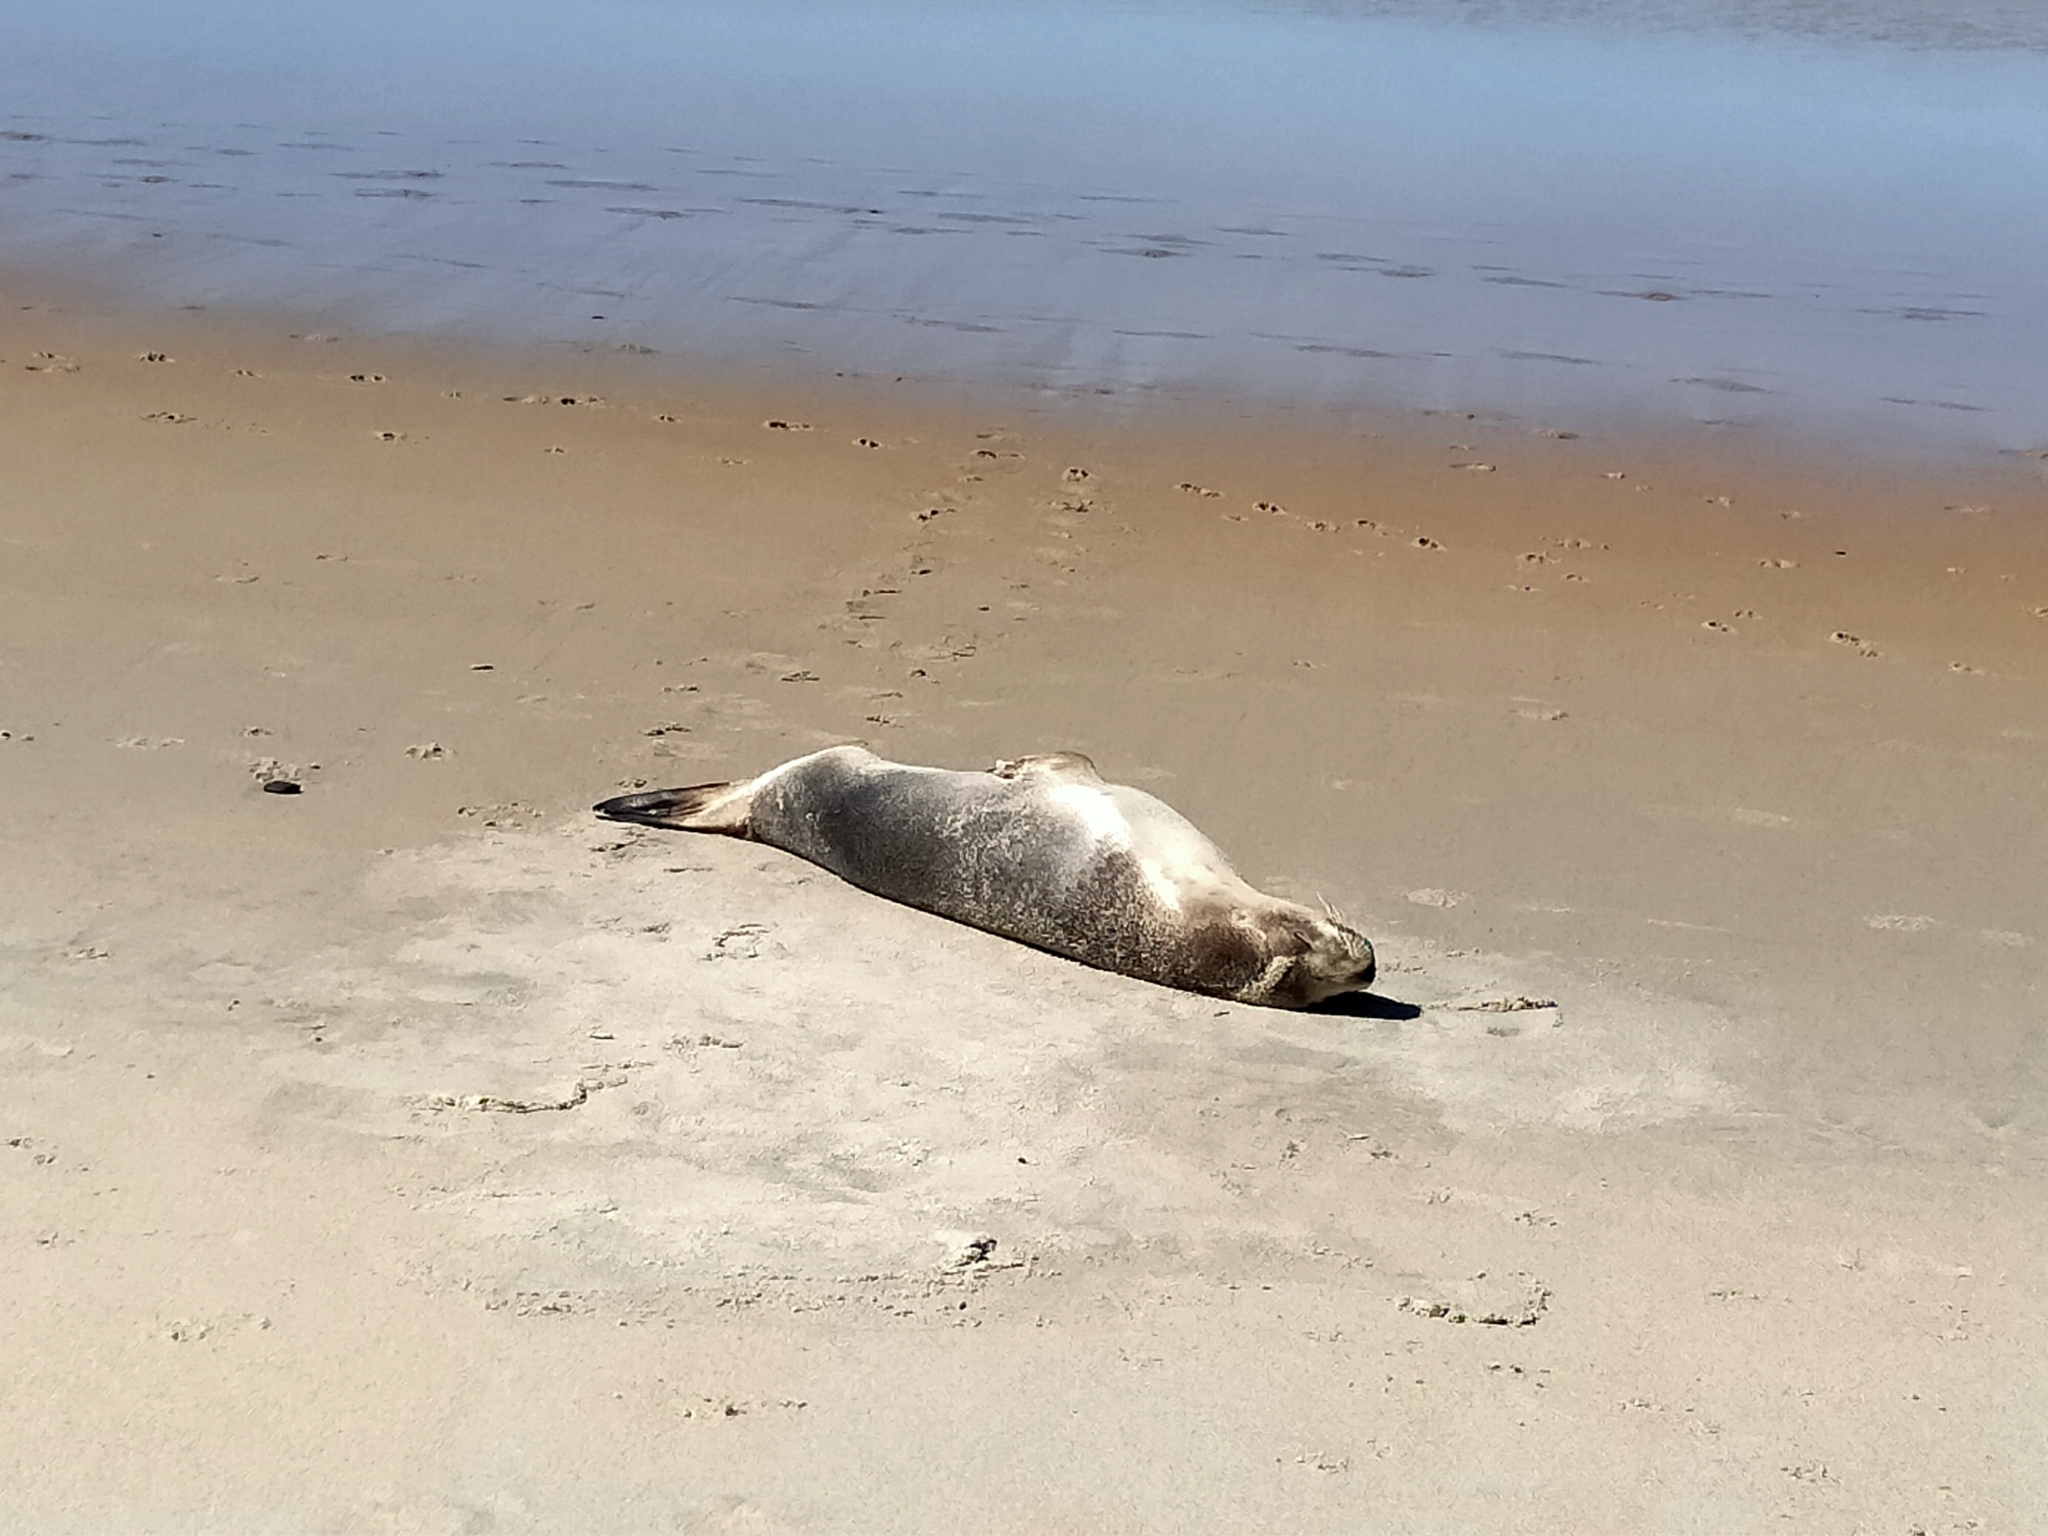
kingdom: Animalia
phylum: Chordata
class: Mammalia
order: Carnivora
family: Otariidae
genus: Phocarctos
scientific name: Phocarctos hookeri
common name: New zealand sea lion
